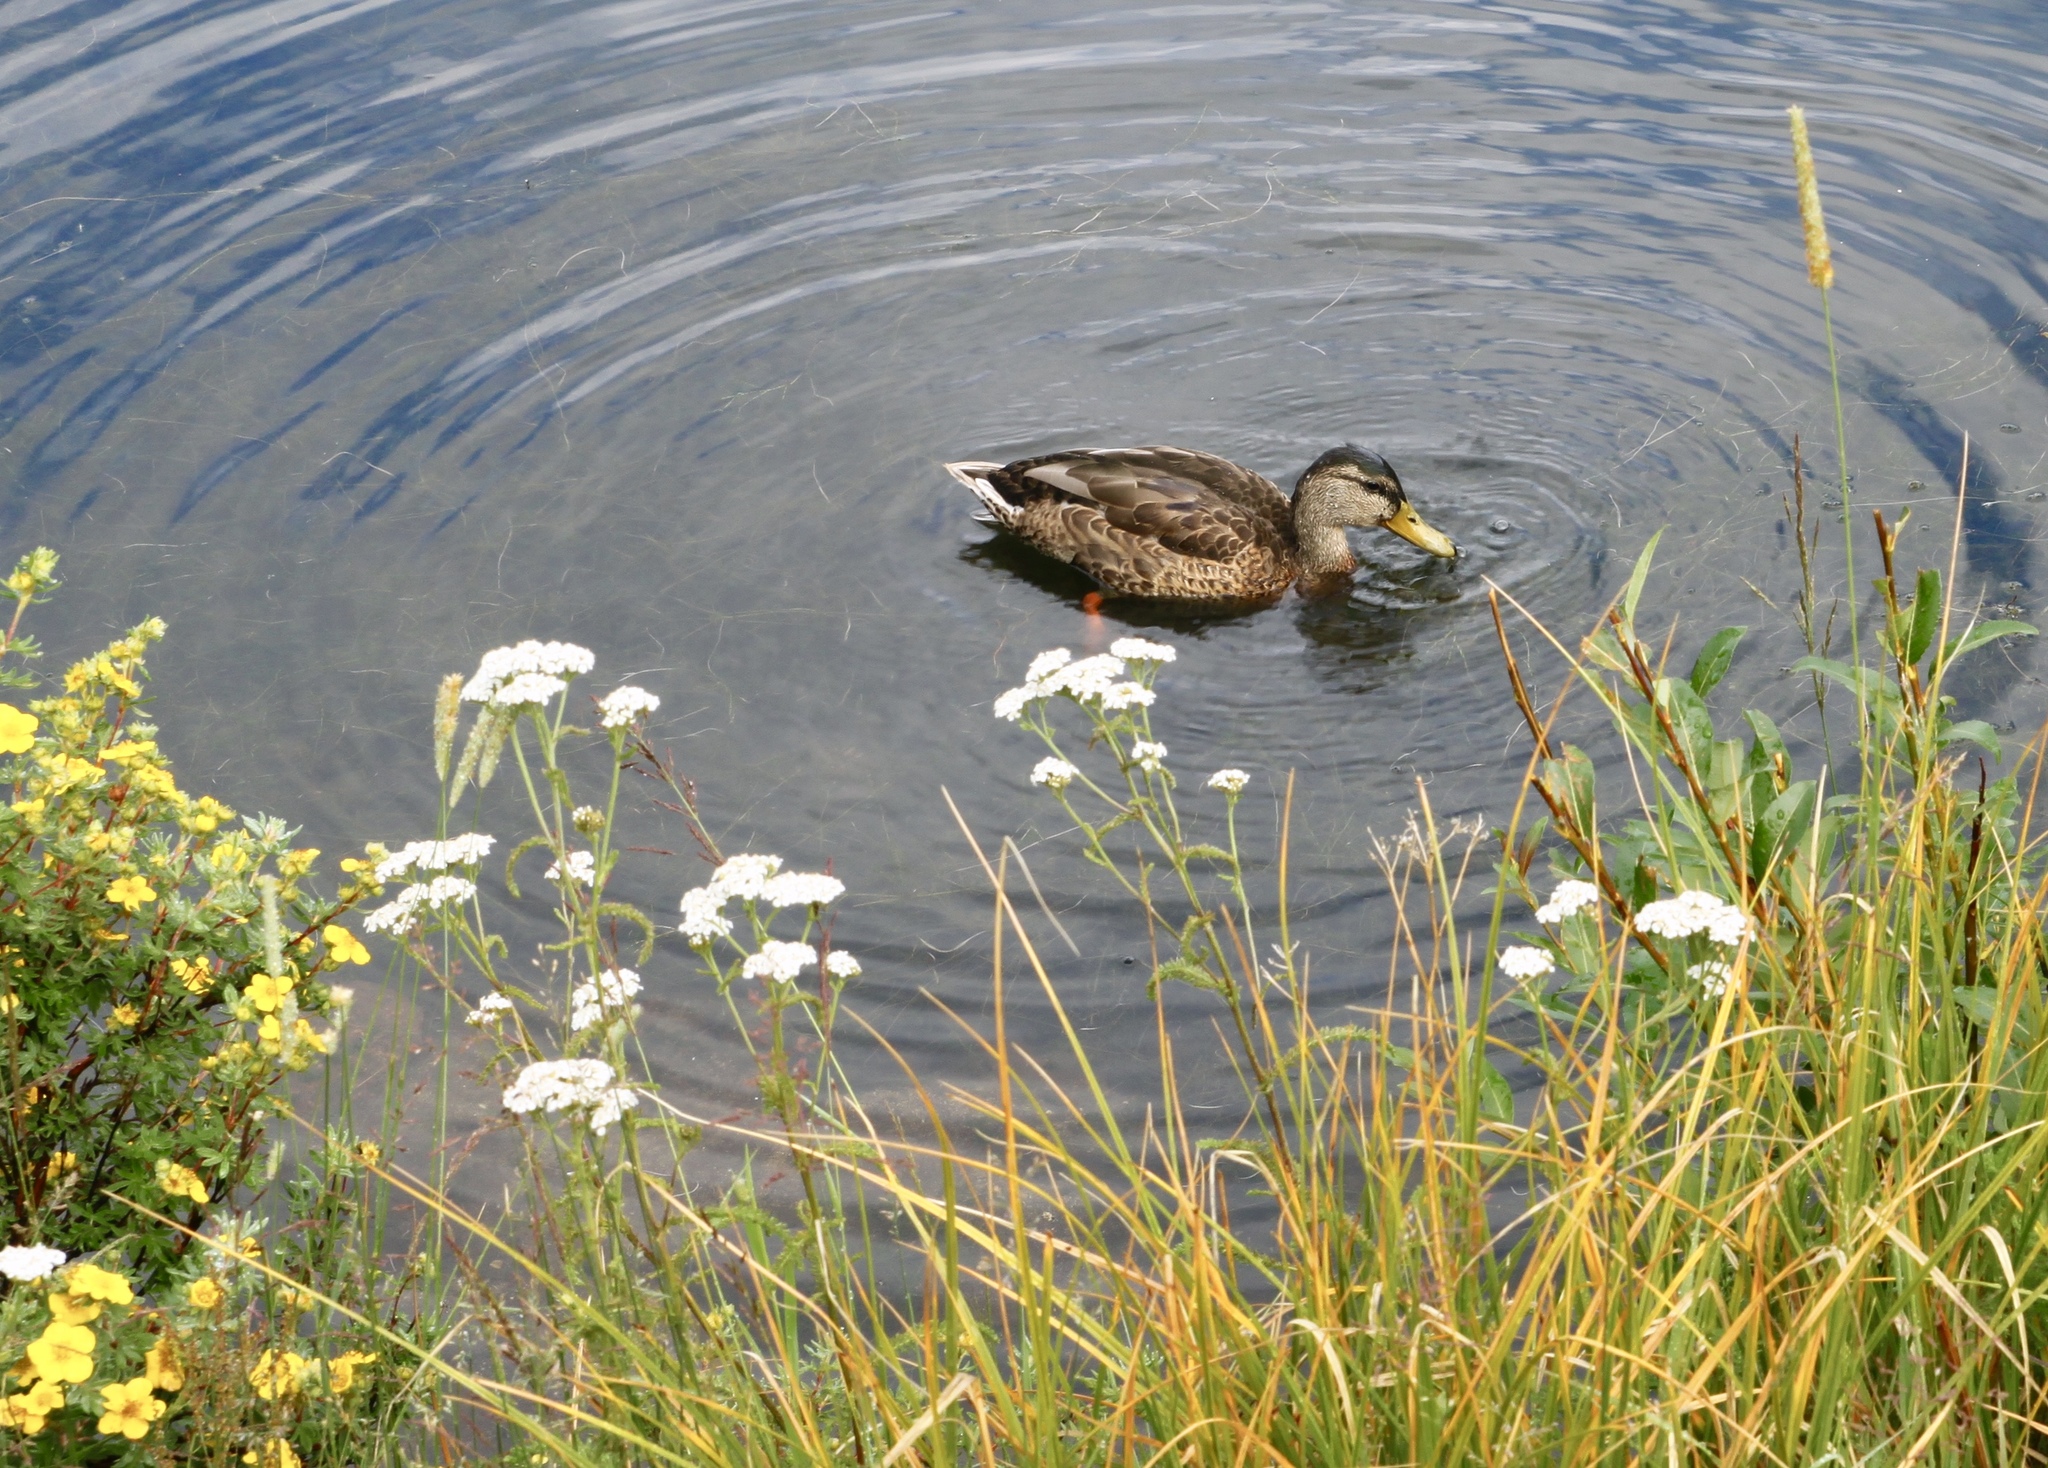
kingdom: Animalia
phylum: Chordata
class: Aves
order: Anseriformes
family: Anatidae
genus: Anas
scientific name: Anas platyrhynchos
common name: Mallard
